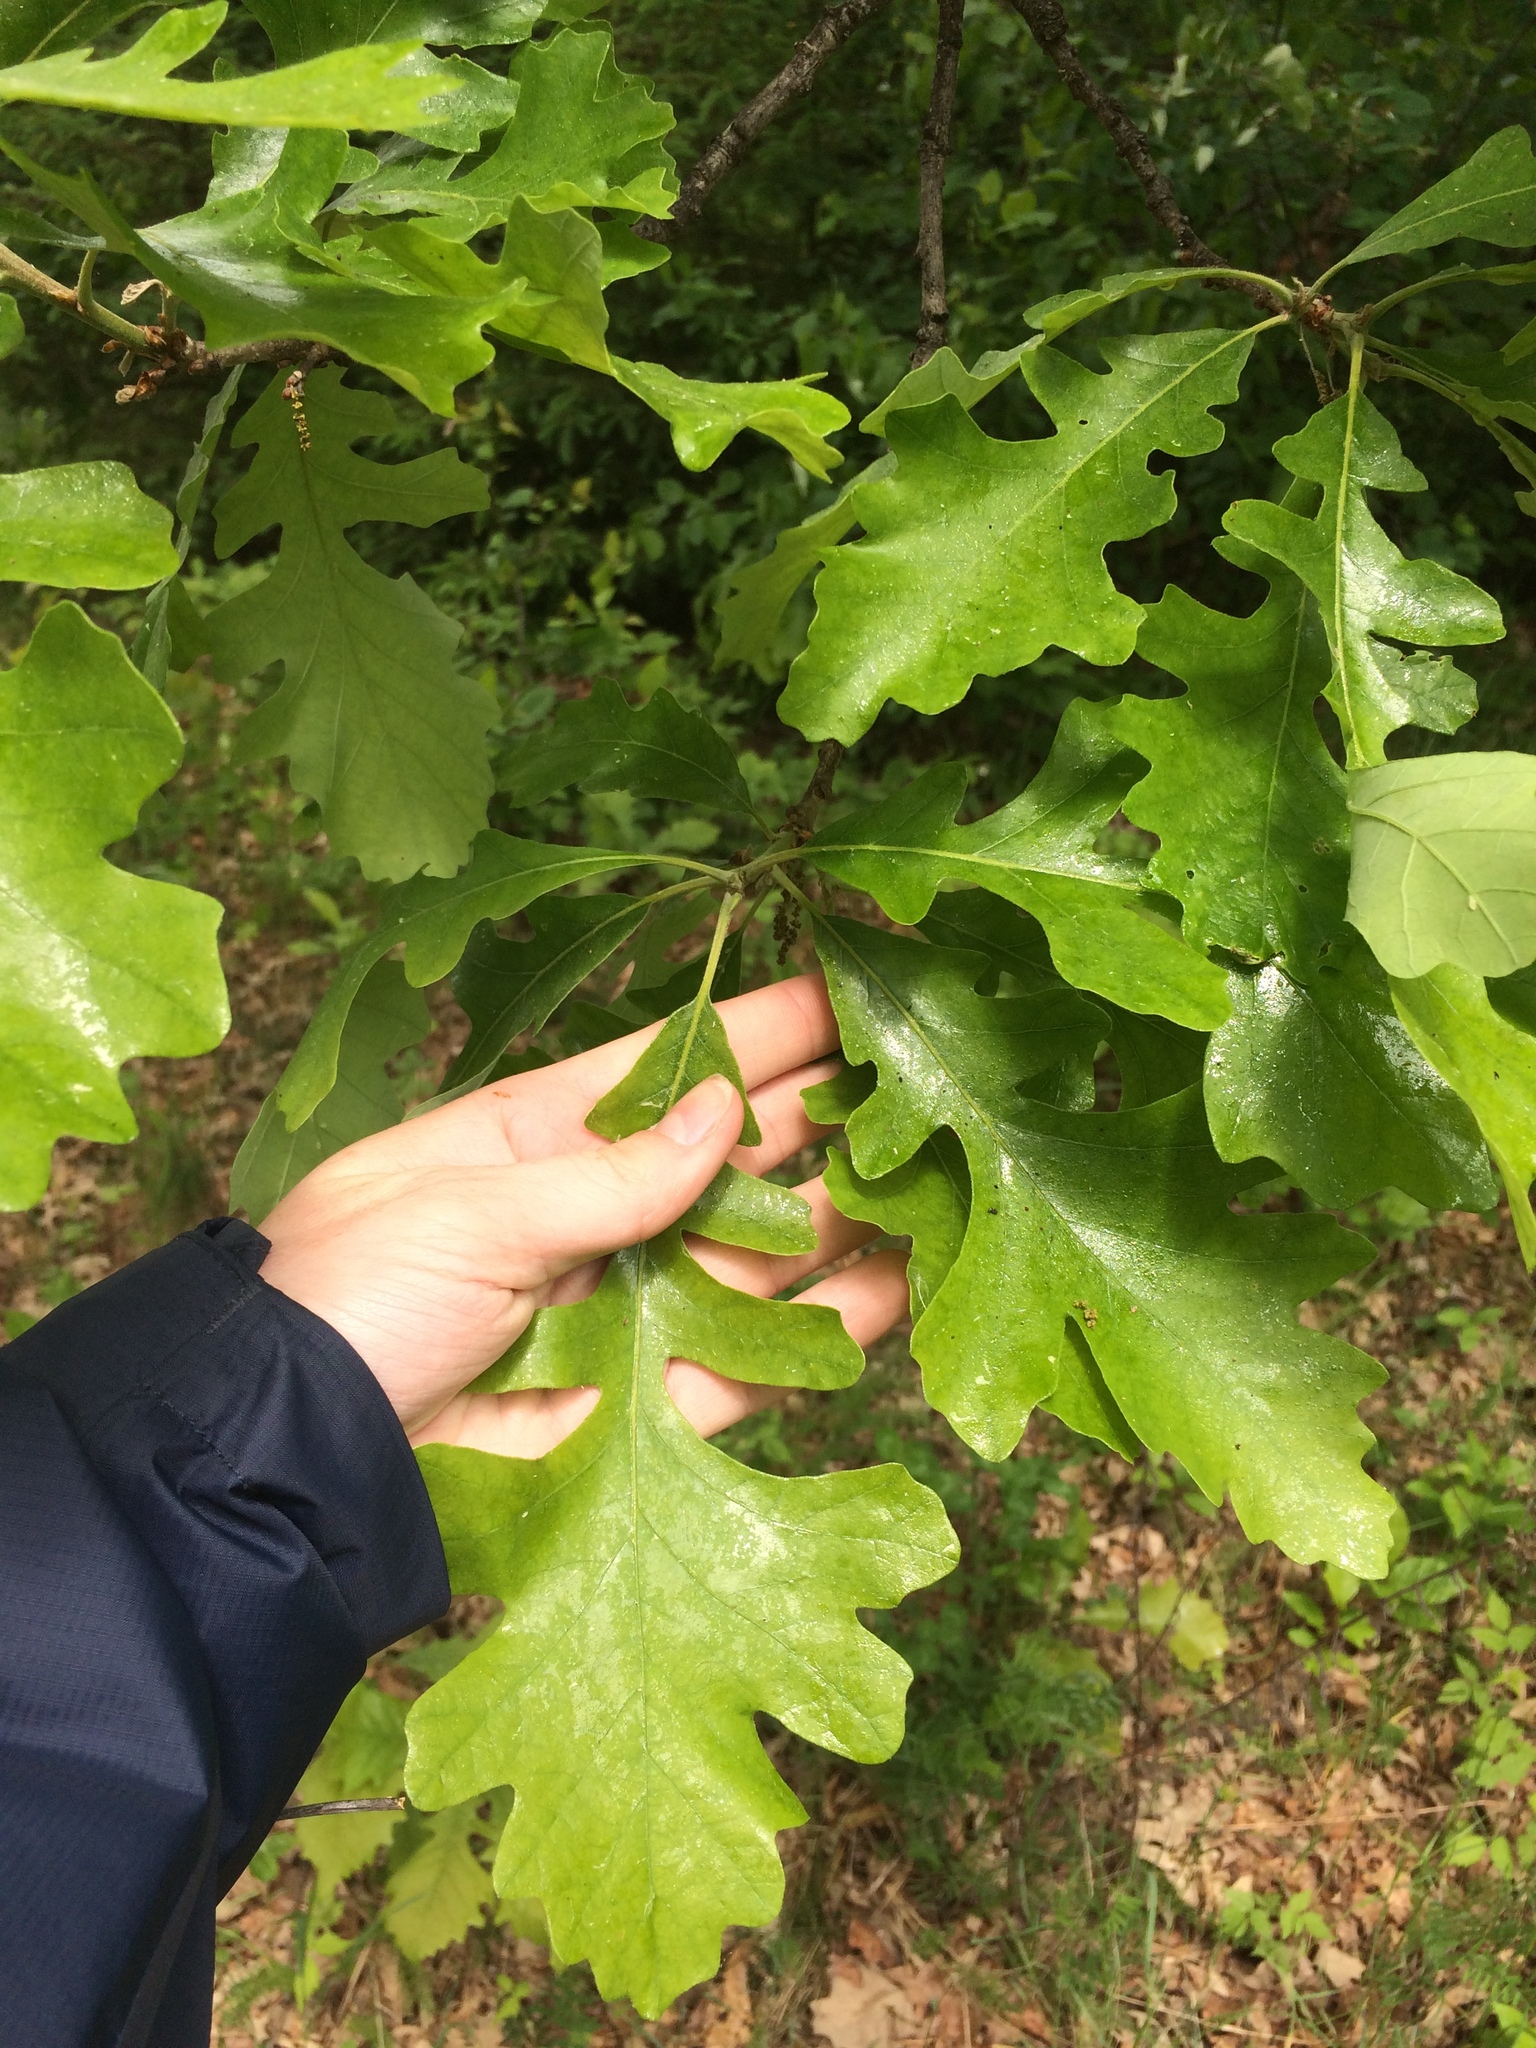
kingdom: Plantae
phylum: Tracheophyta
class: Magnoliopsida
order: Fagales
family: Fagaceae
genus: Quercus
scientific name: Quercus macrocarpa
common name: Bur oak
